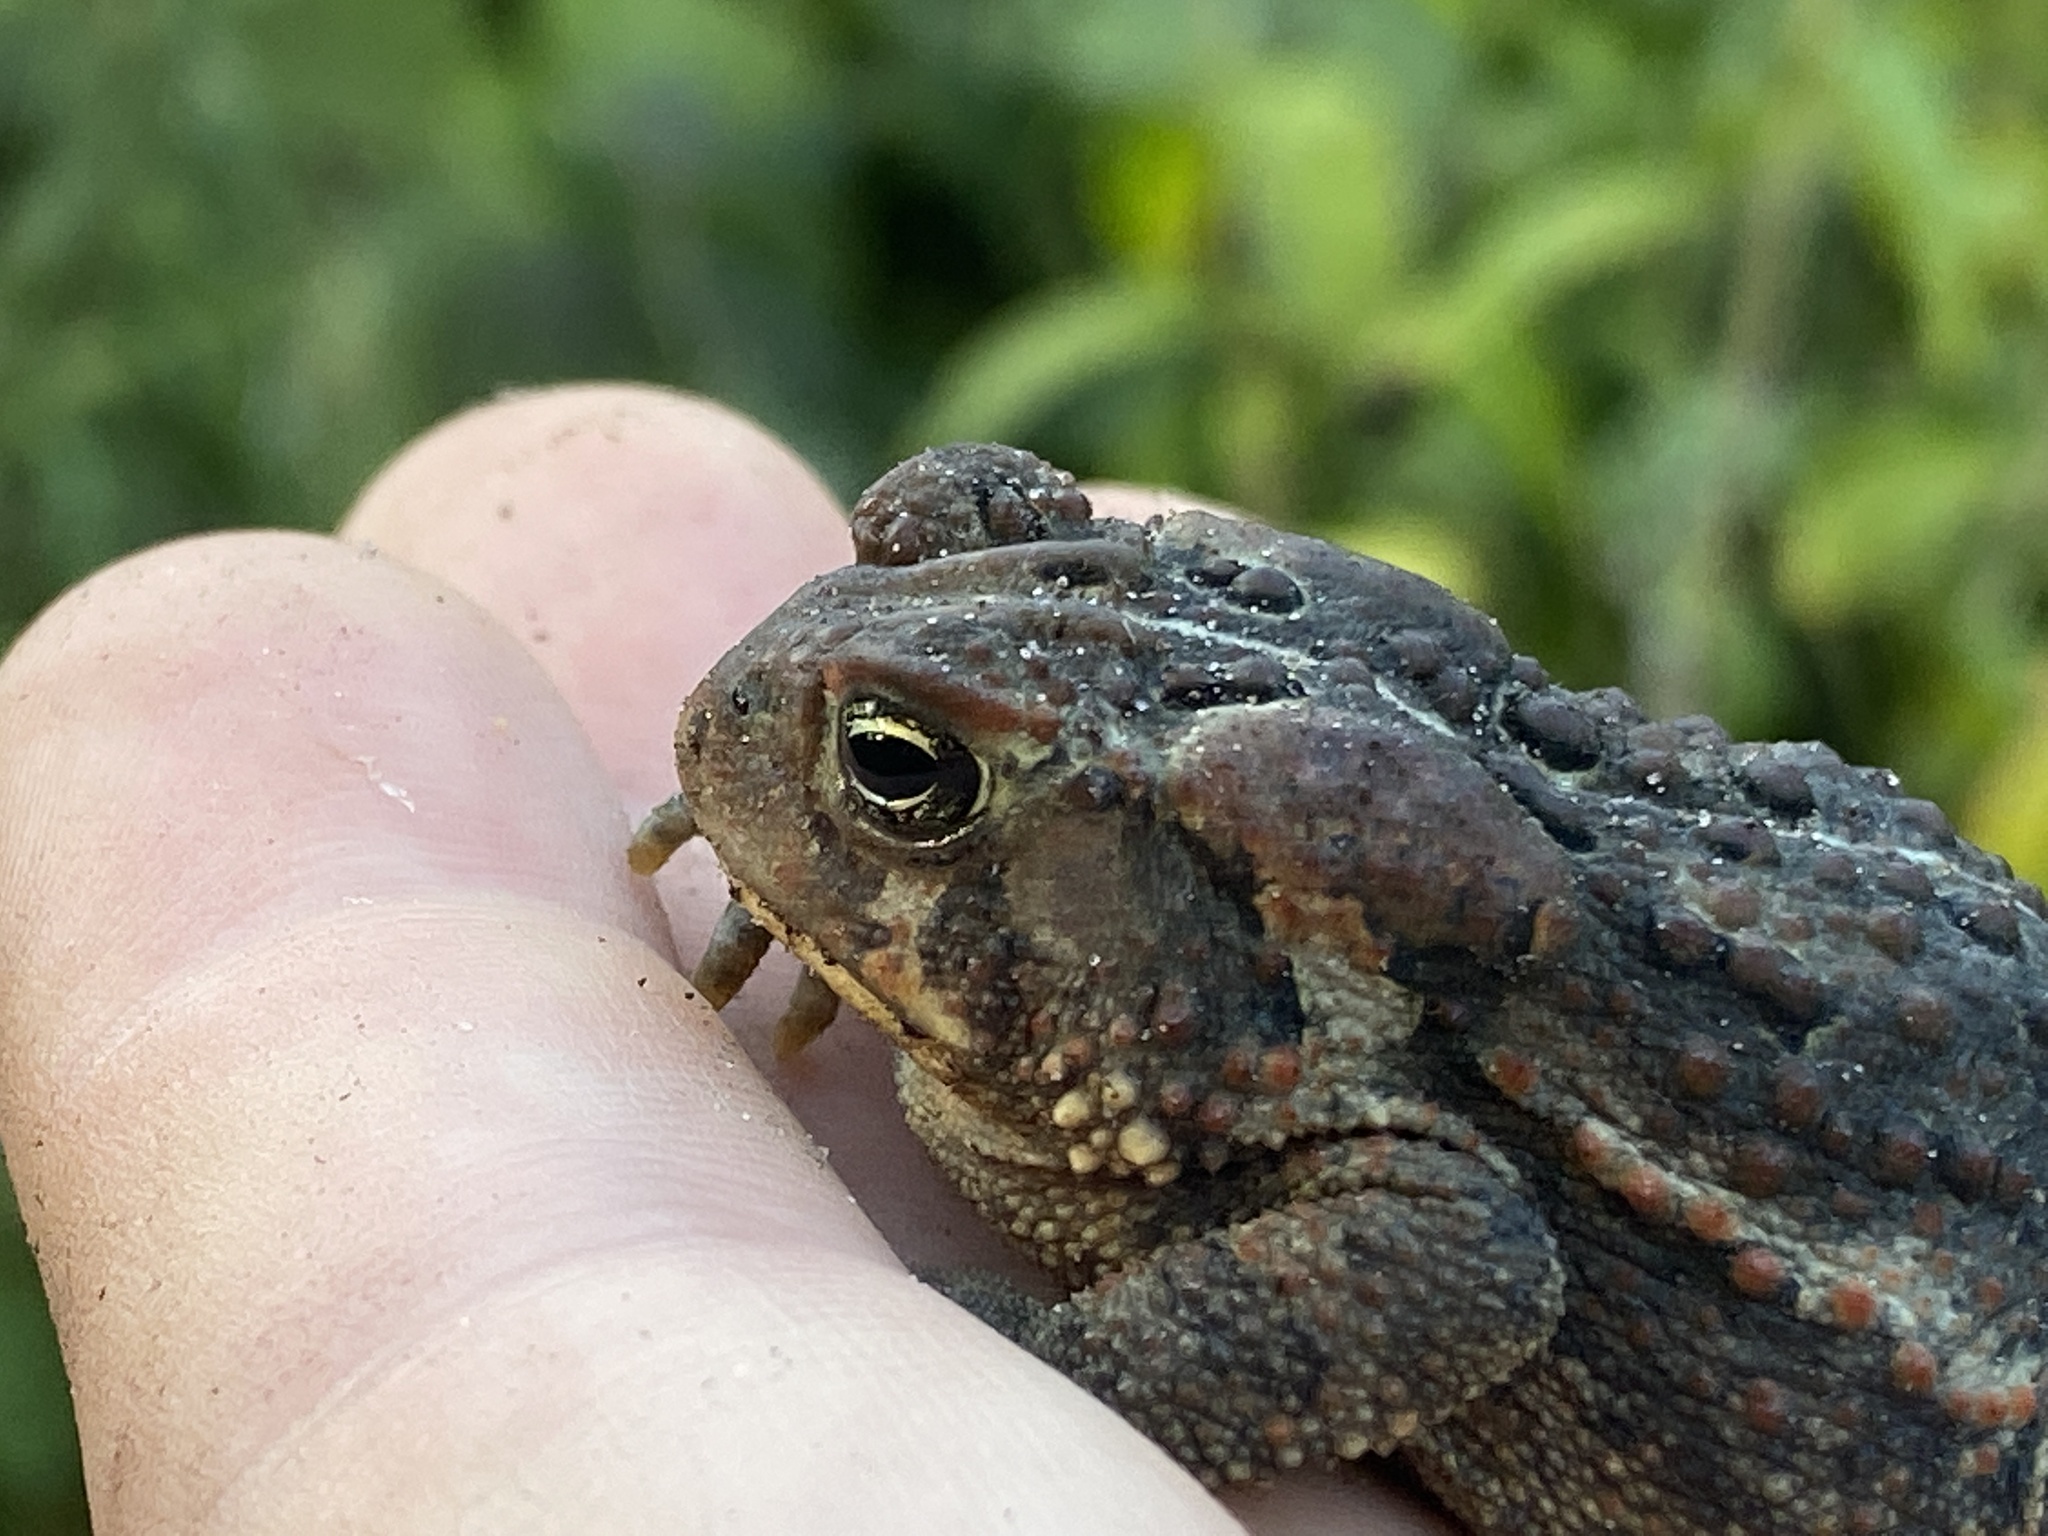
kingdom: Animalia
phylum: Chordata
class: Amphibia
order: Anura
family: Bufonidae
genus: Anaxyrus
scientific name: Anaxyrus americanus
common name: American toad
